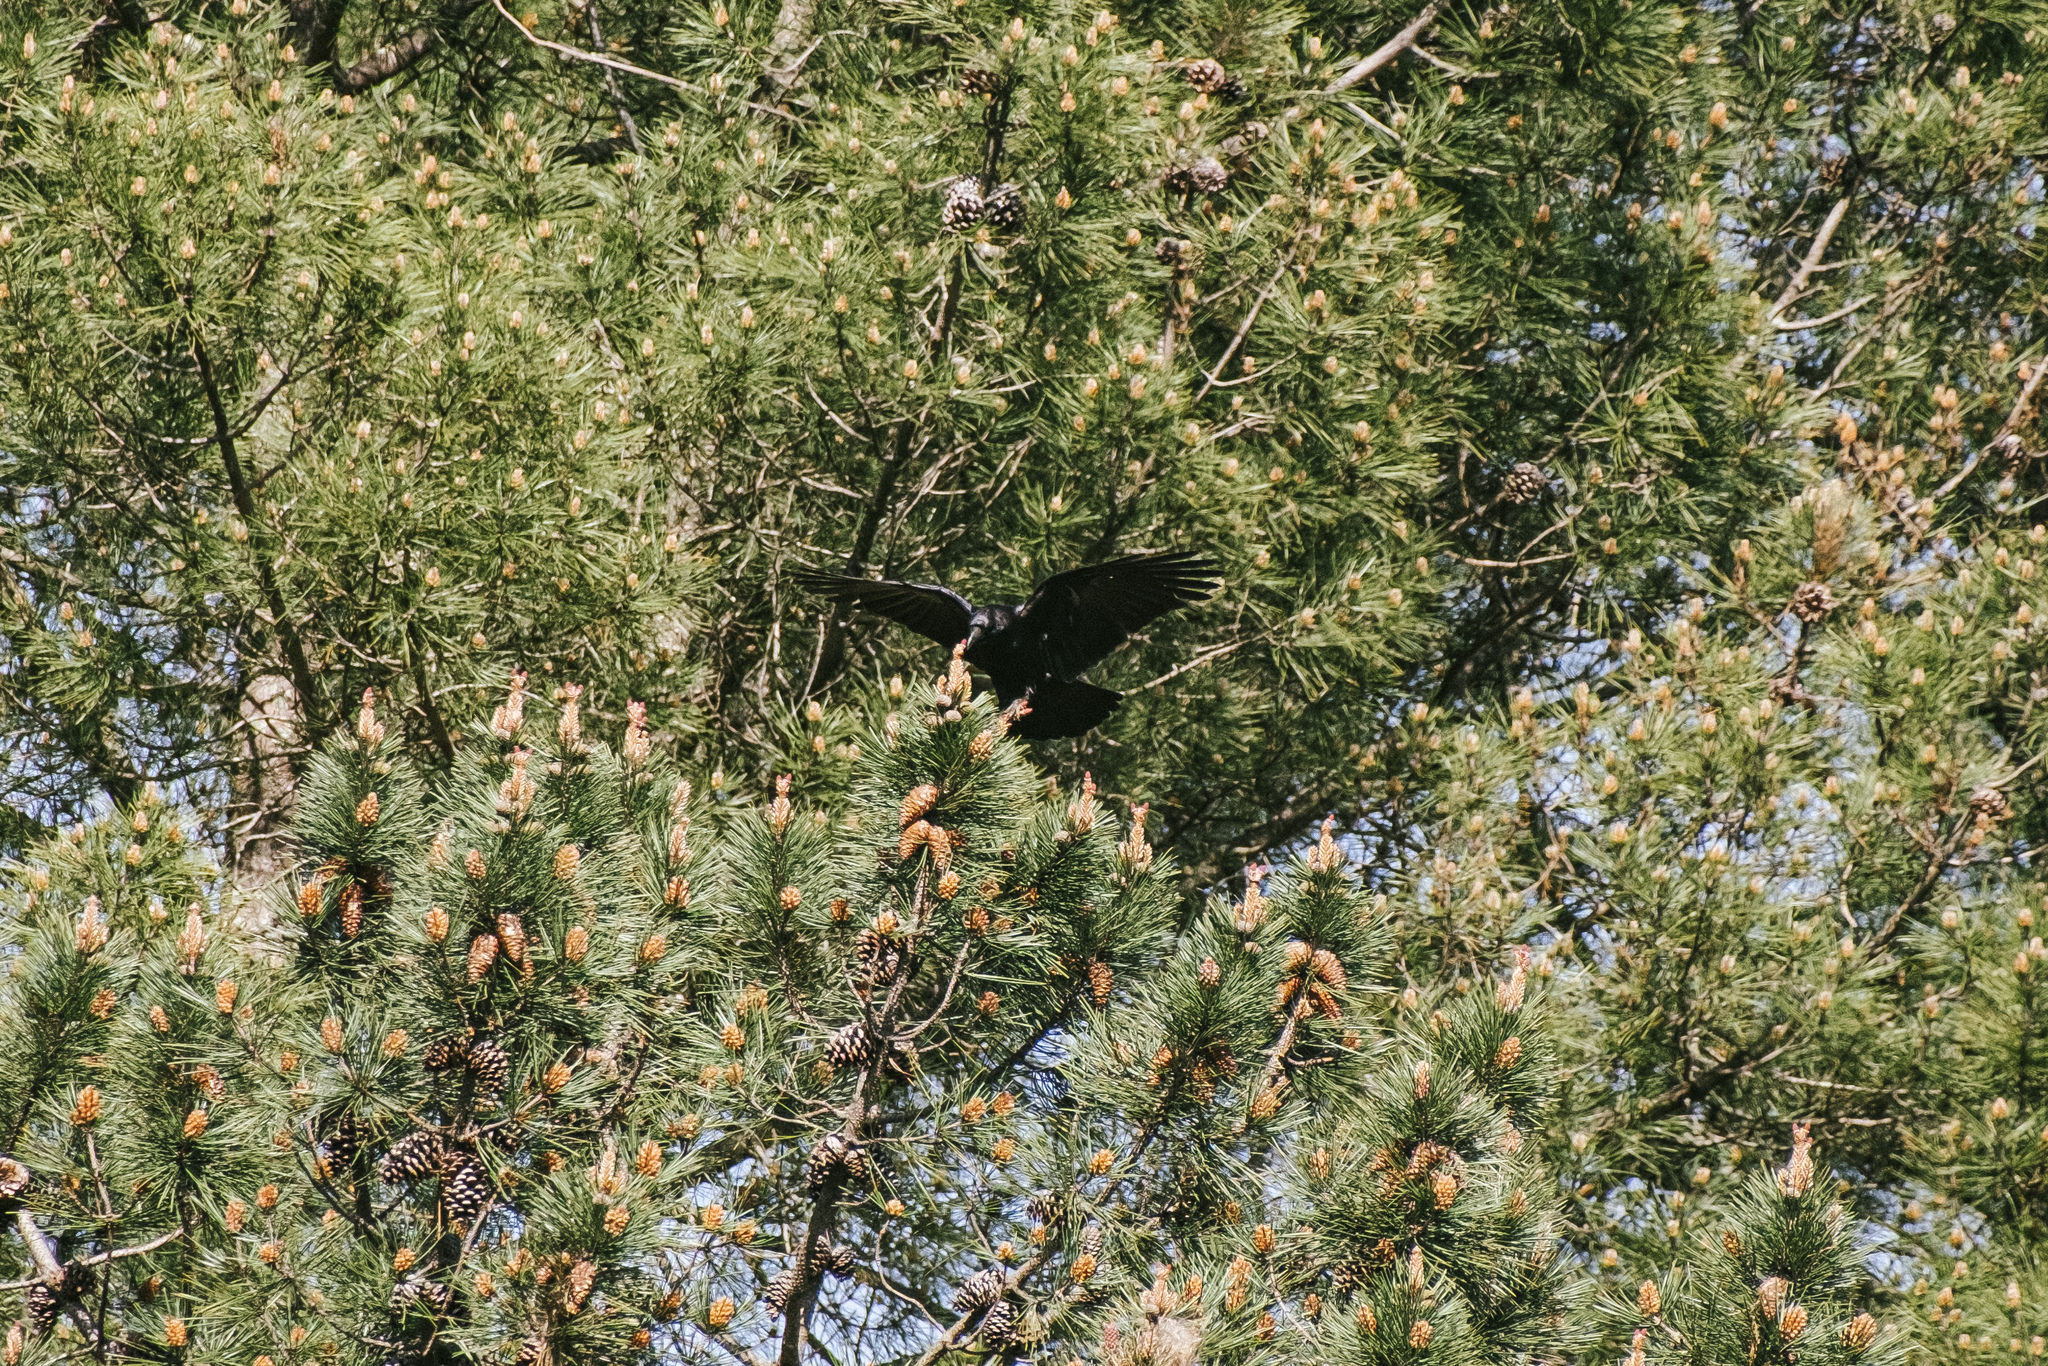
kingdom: Animalia
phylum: Chordata
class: Aves
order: Passeriformes
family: Corvidae
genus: Corvus
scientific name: Corvus corone
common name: Carrion crow
